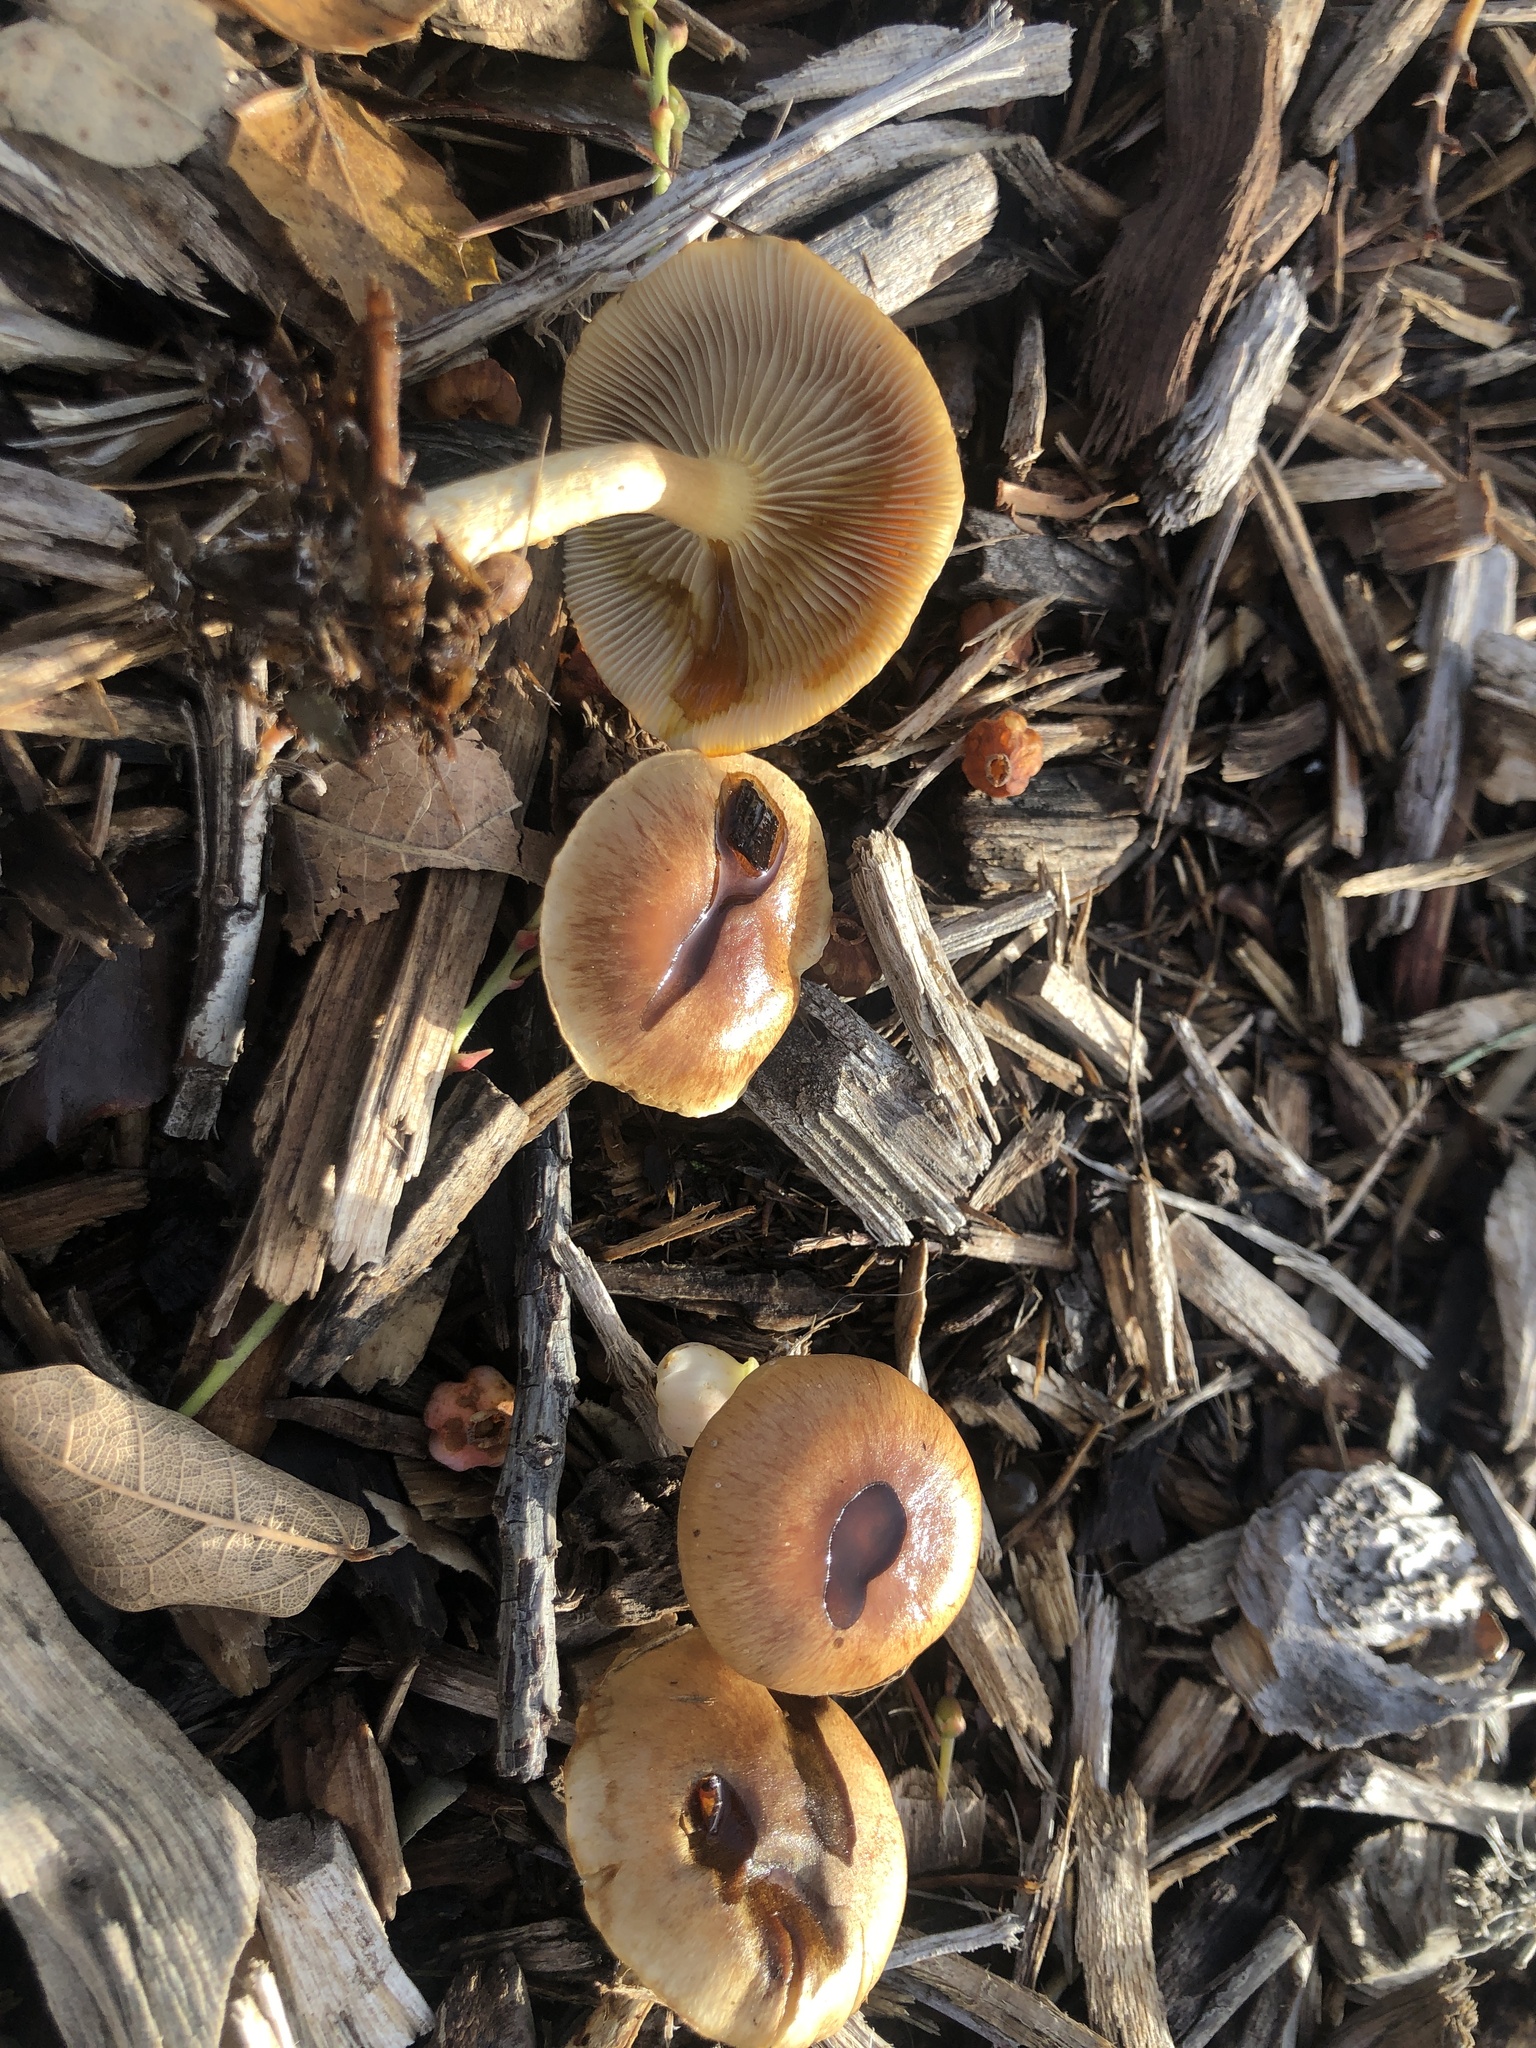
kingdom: Fungi
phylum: Basidiomycota
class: Agaricomycetes
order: Agaricales
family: Strophariaceae
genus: Pholiota
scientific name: Pholiota spumosa
